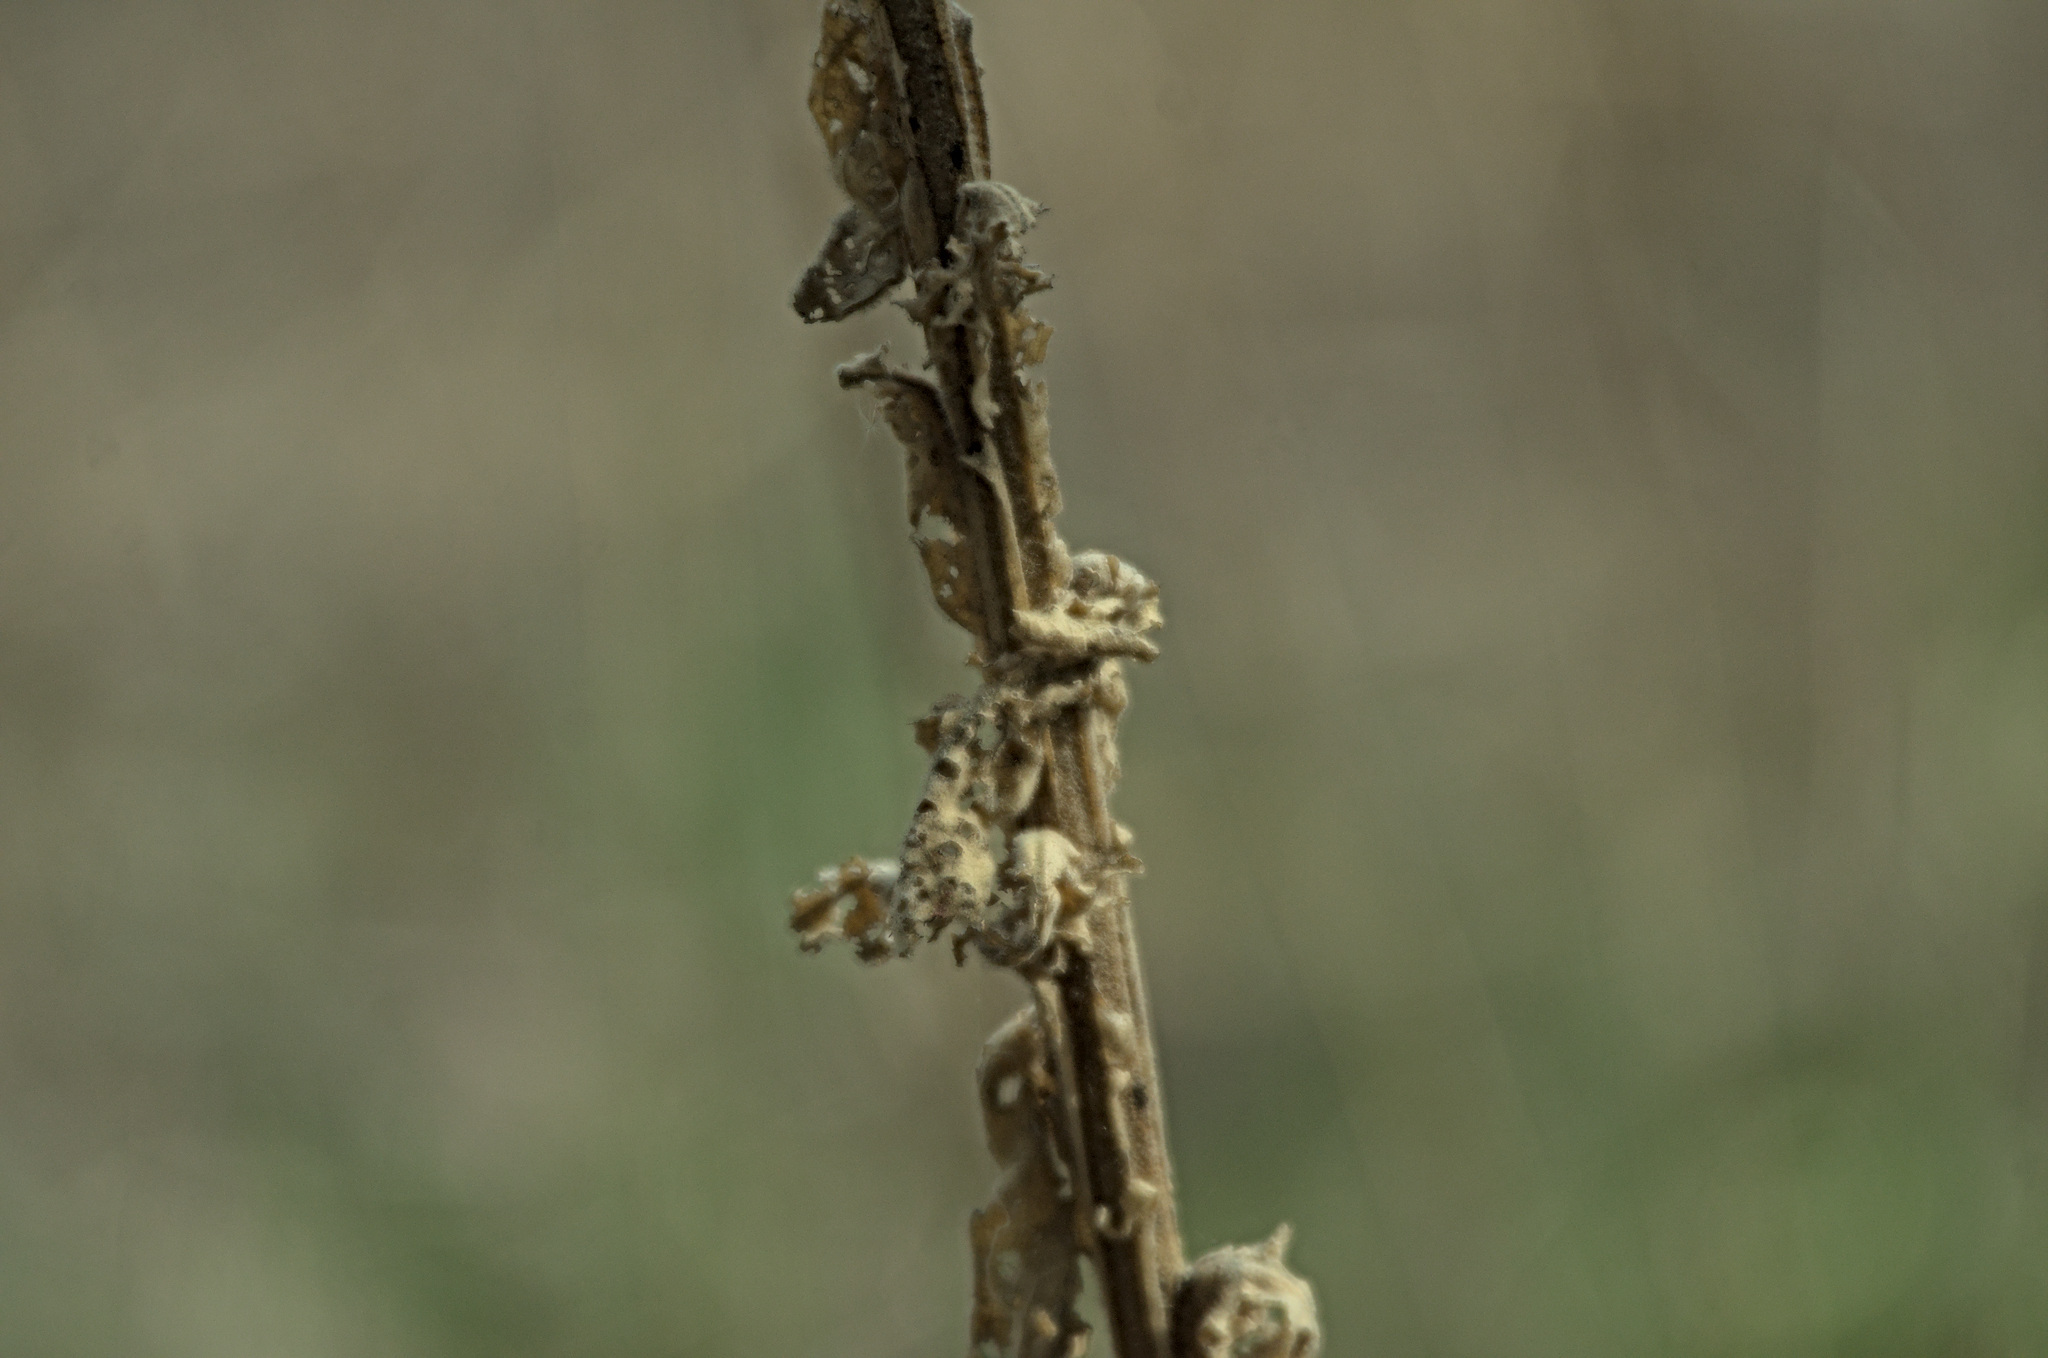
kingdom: Plantae
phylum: Tracheophyta
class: Magnoliopsida
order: Lamiales
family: Scrophulariaceae
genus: Verbascum
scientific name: Verbascum thapsus
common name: Common mullein
